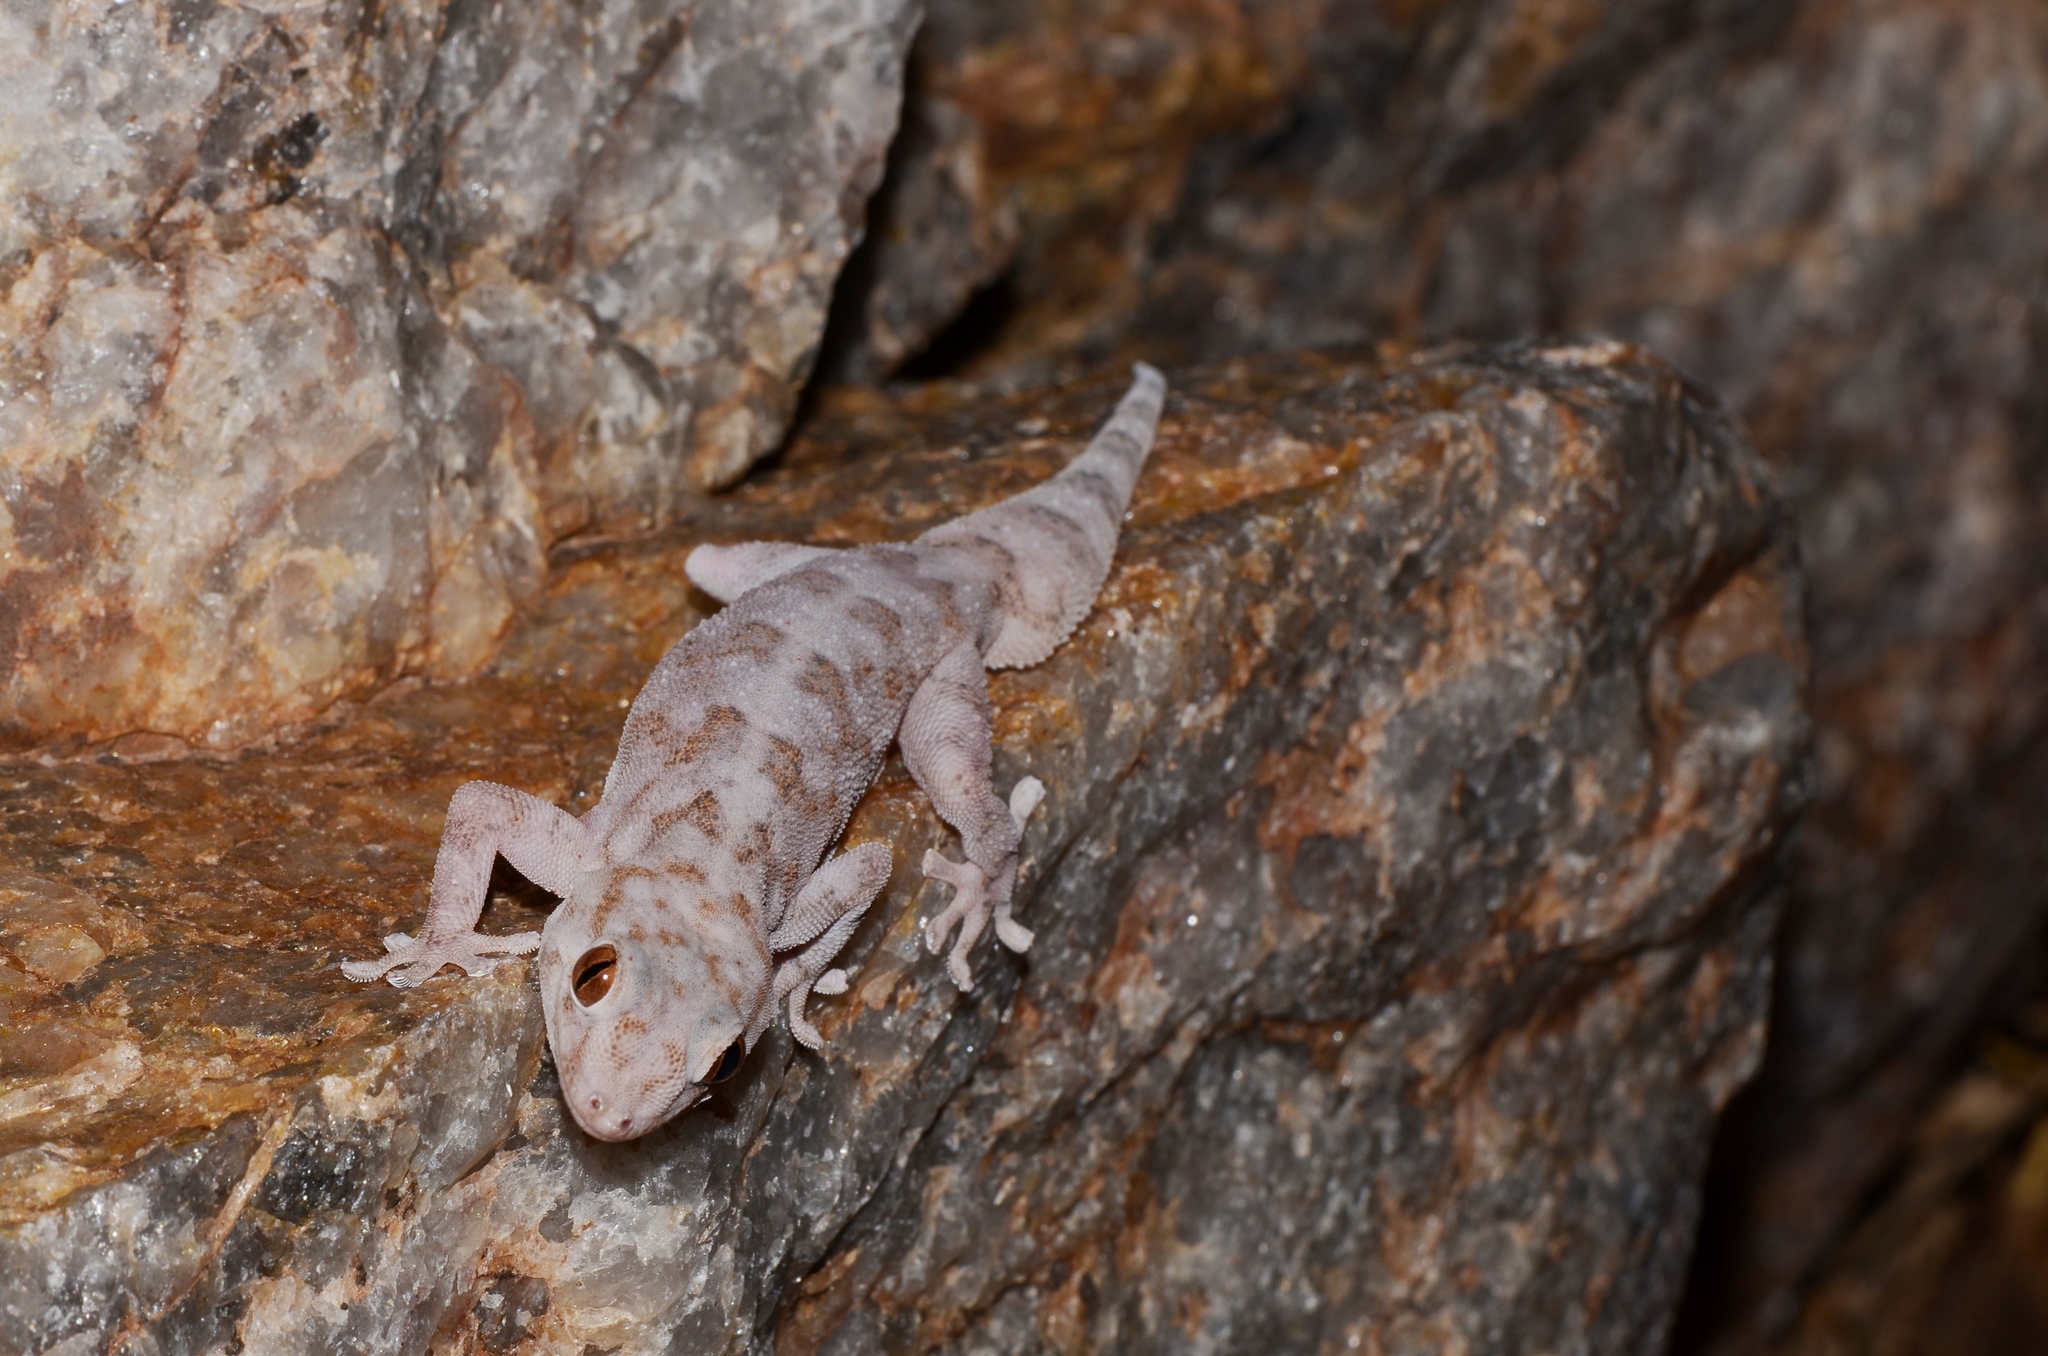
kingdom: Animalia
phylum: Chordata
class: Squamata
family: Gekkonidae
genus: Pachydactylus
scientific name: Pachydactylus haackei
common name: Haacke's gecko
